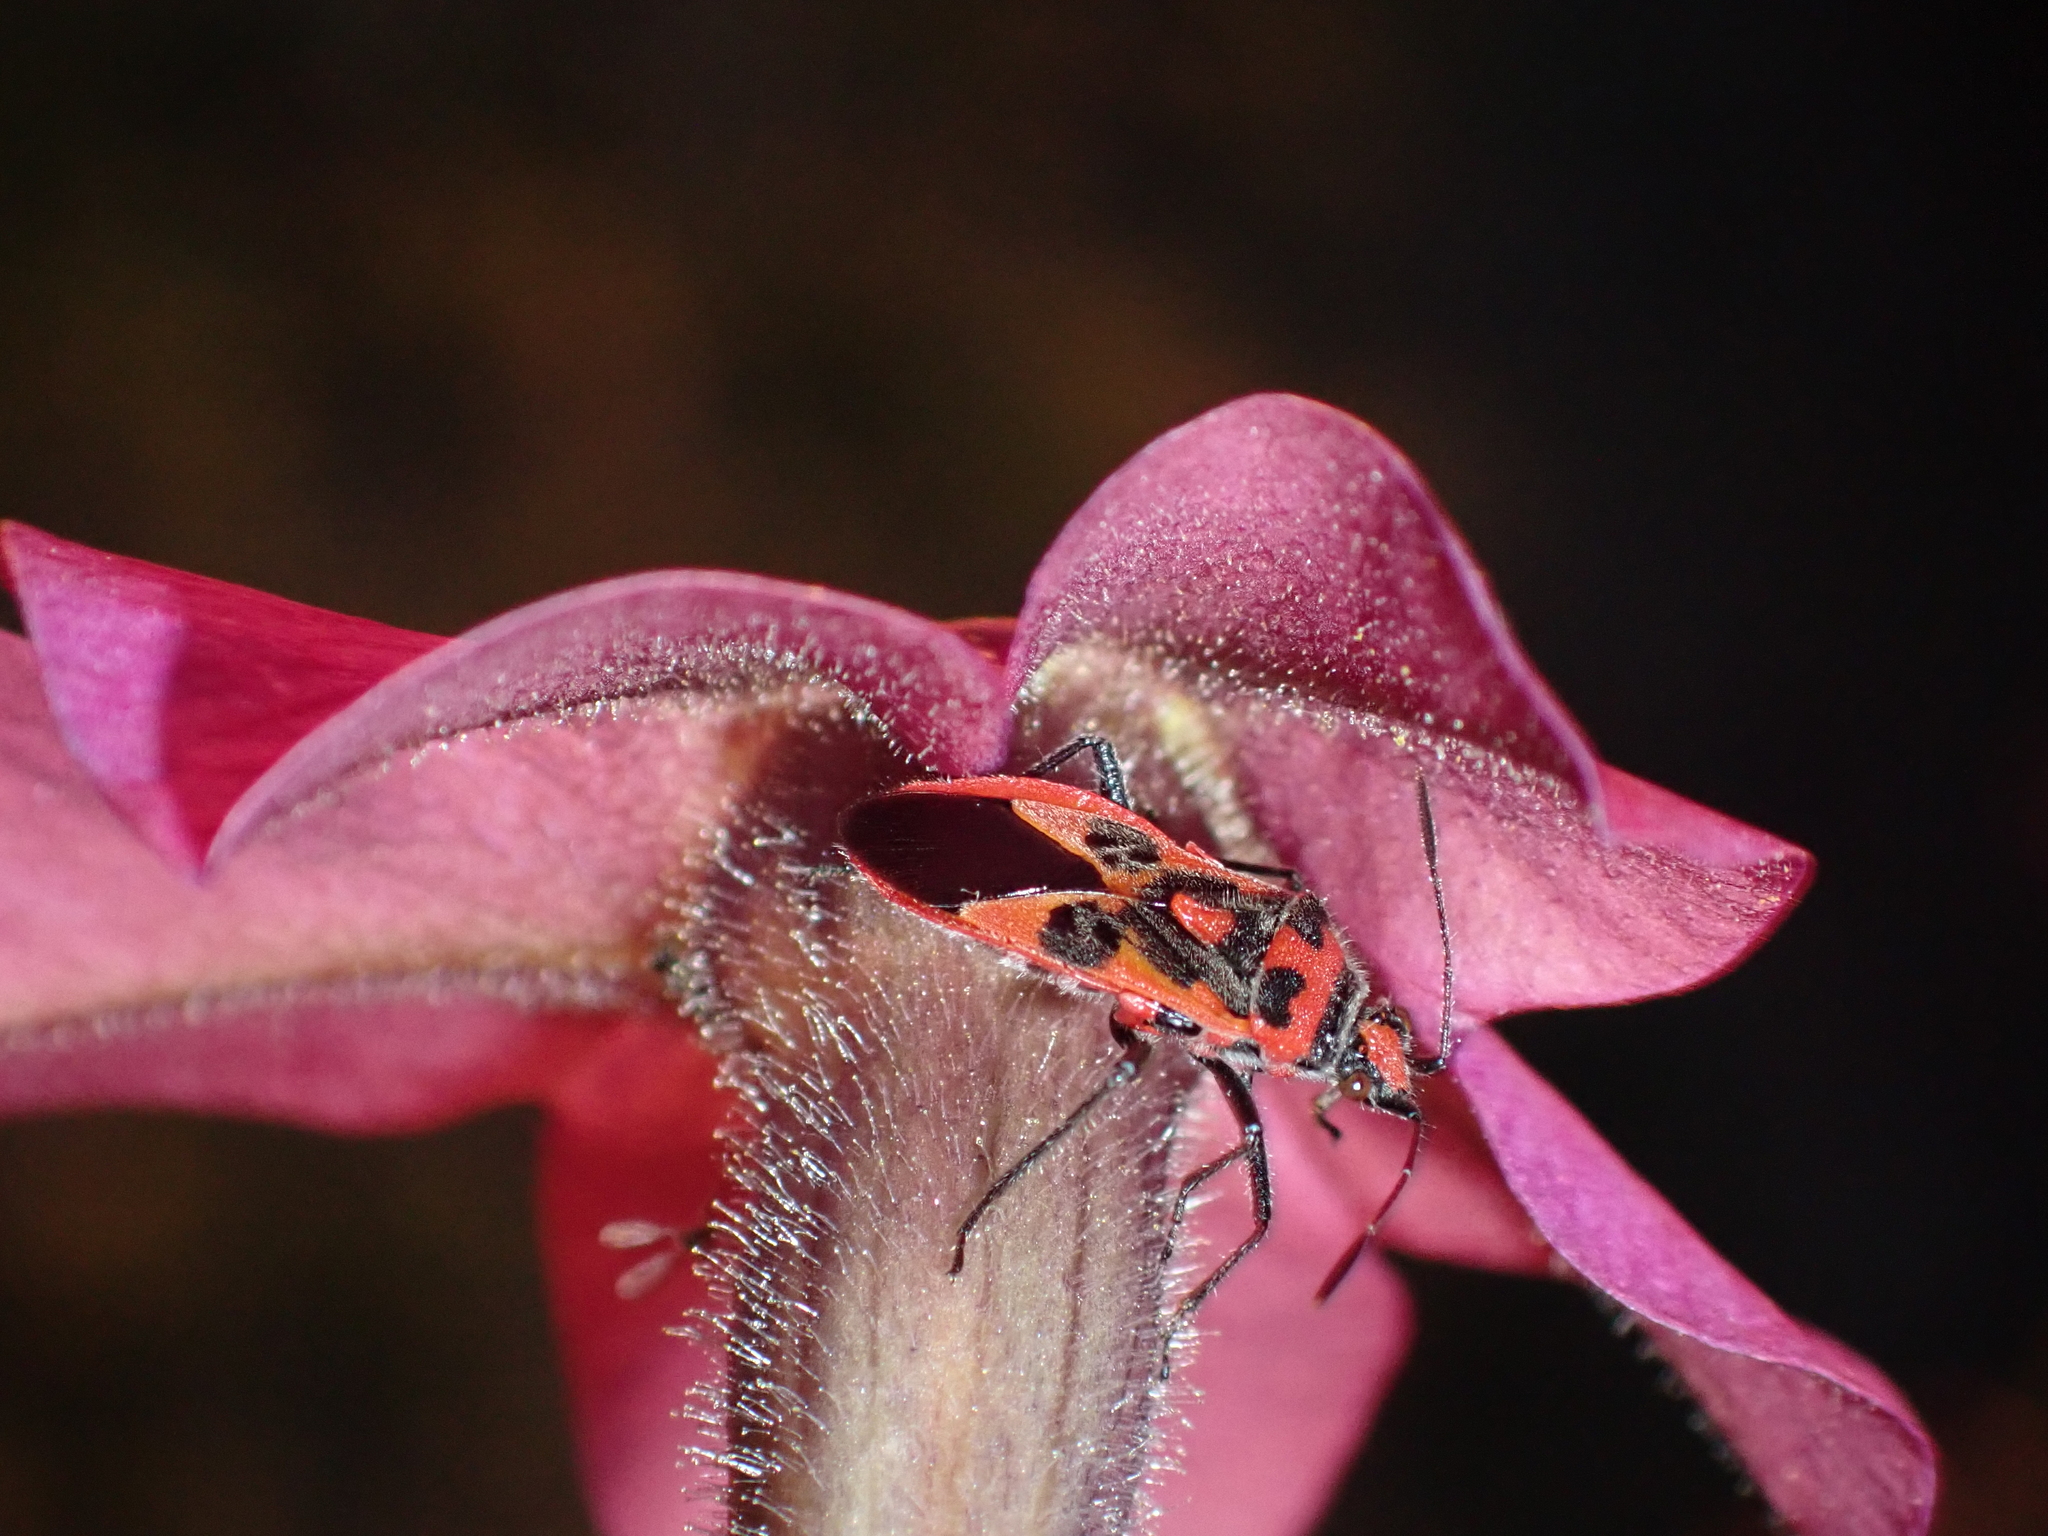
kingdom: Animalia
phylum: Arthropoda
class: Insecta
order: Hemiptera
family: Rhopalidae
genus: Corizus
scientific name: Corizus hyoscyami
